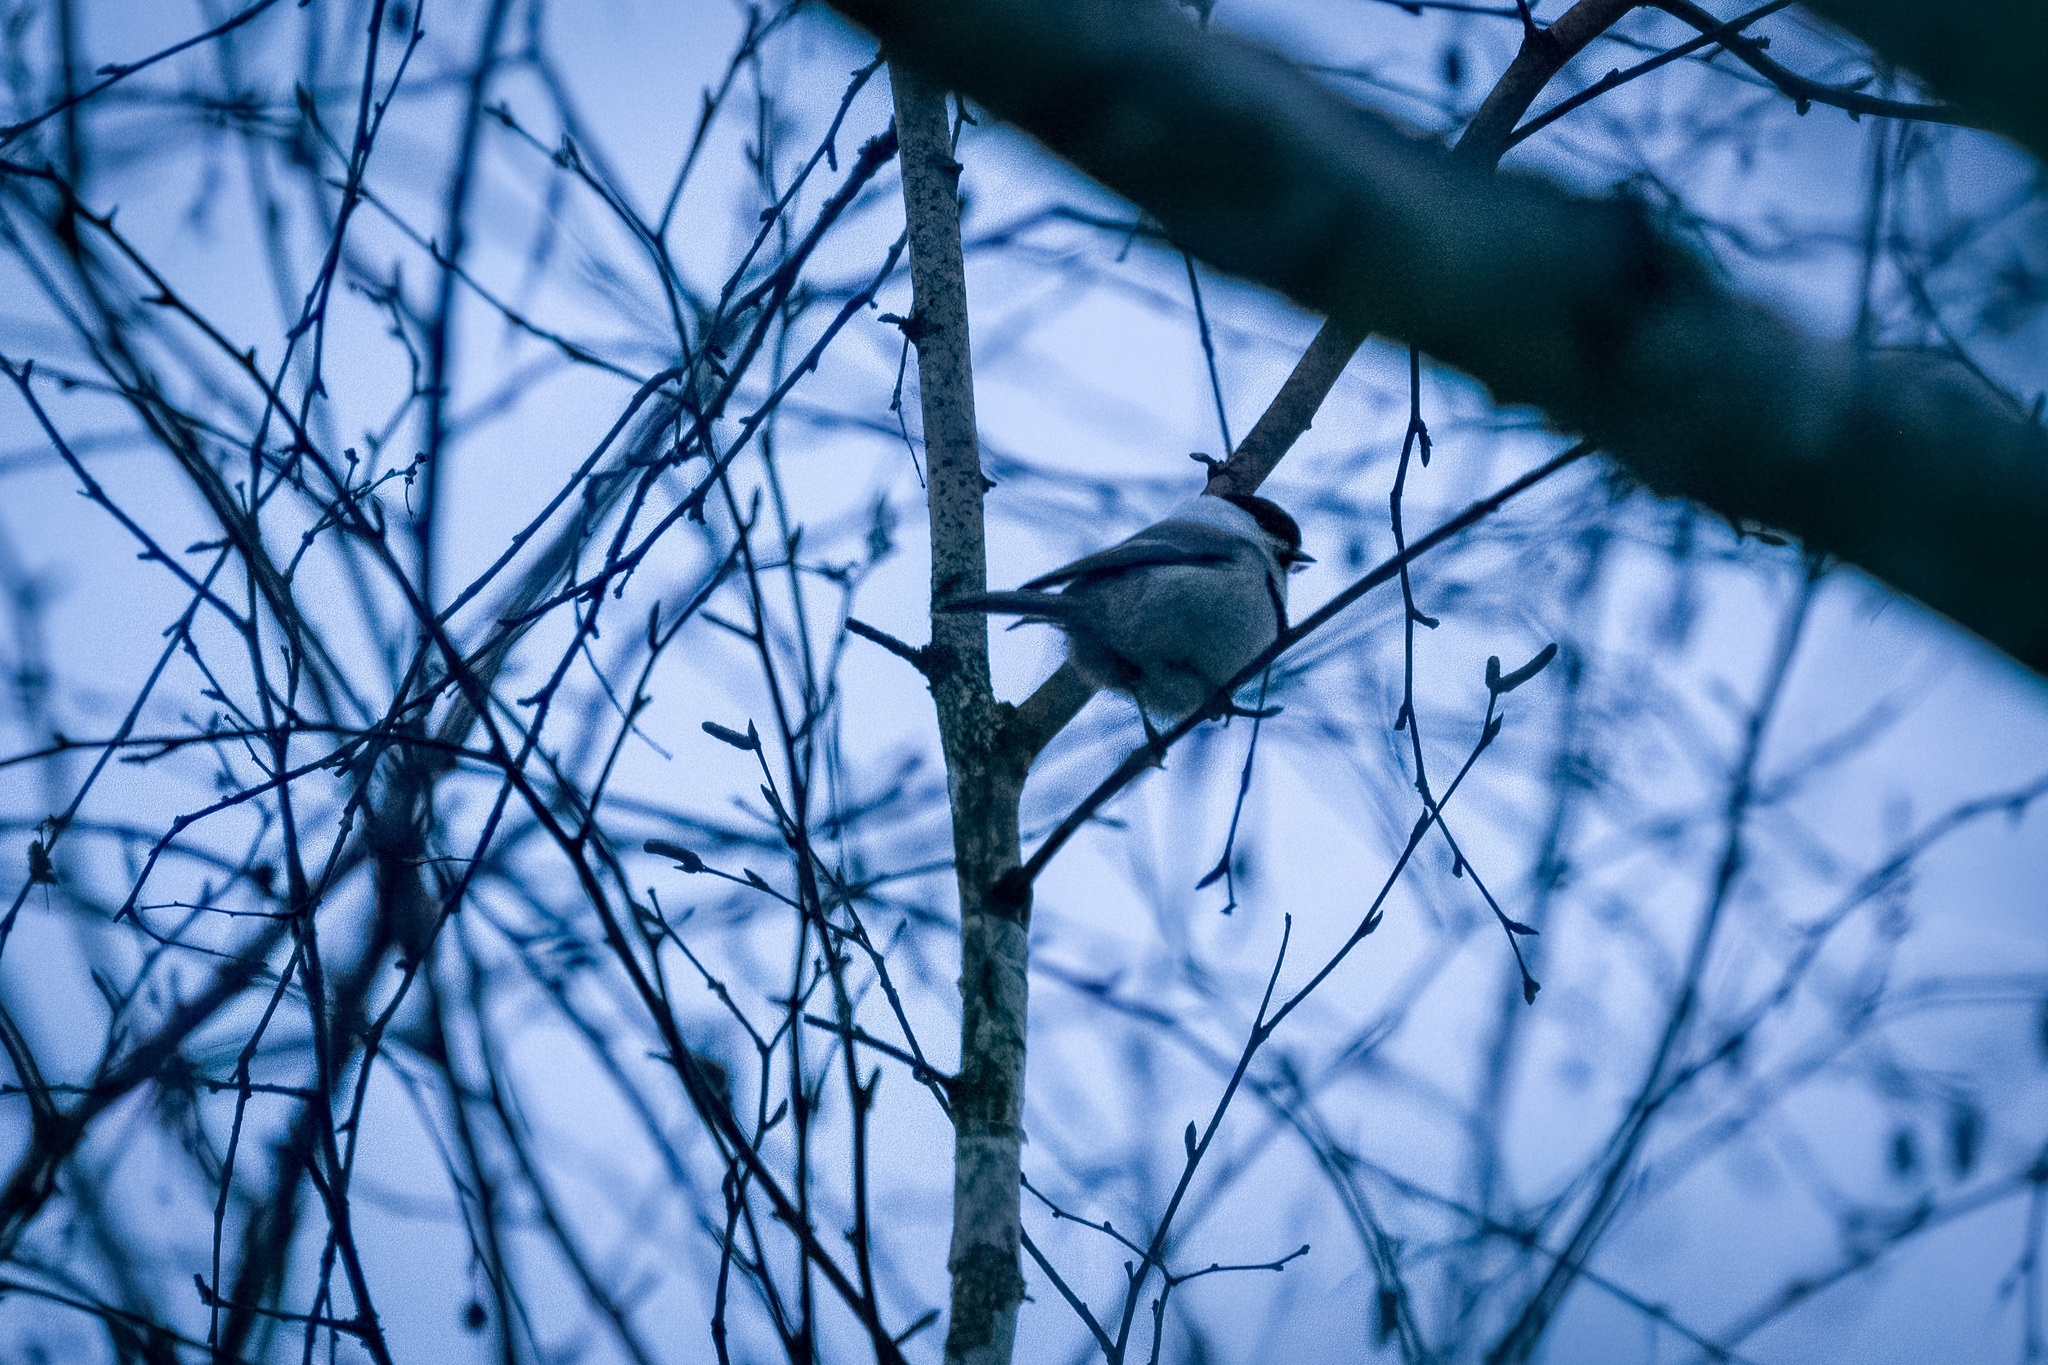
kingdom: Animalia
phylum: Chordata
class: Aves
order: Passeriformes
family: Paridae
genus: Poecile
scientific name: Poecile montanus
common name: Willow tit
